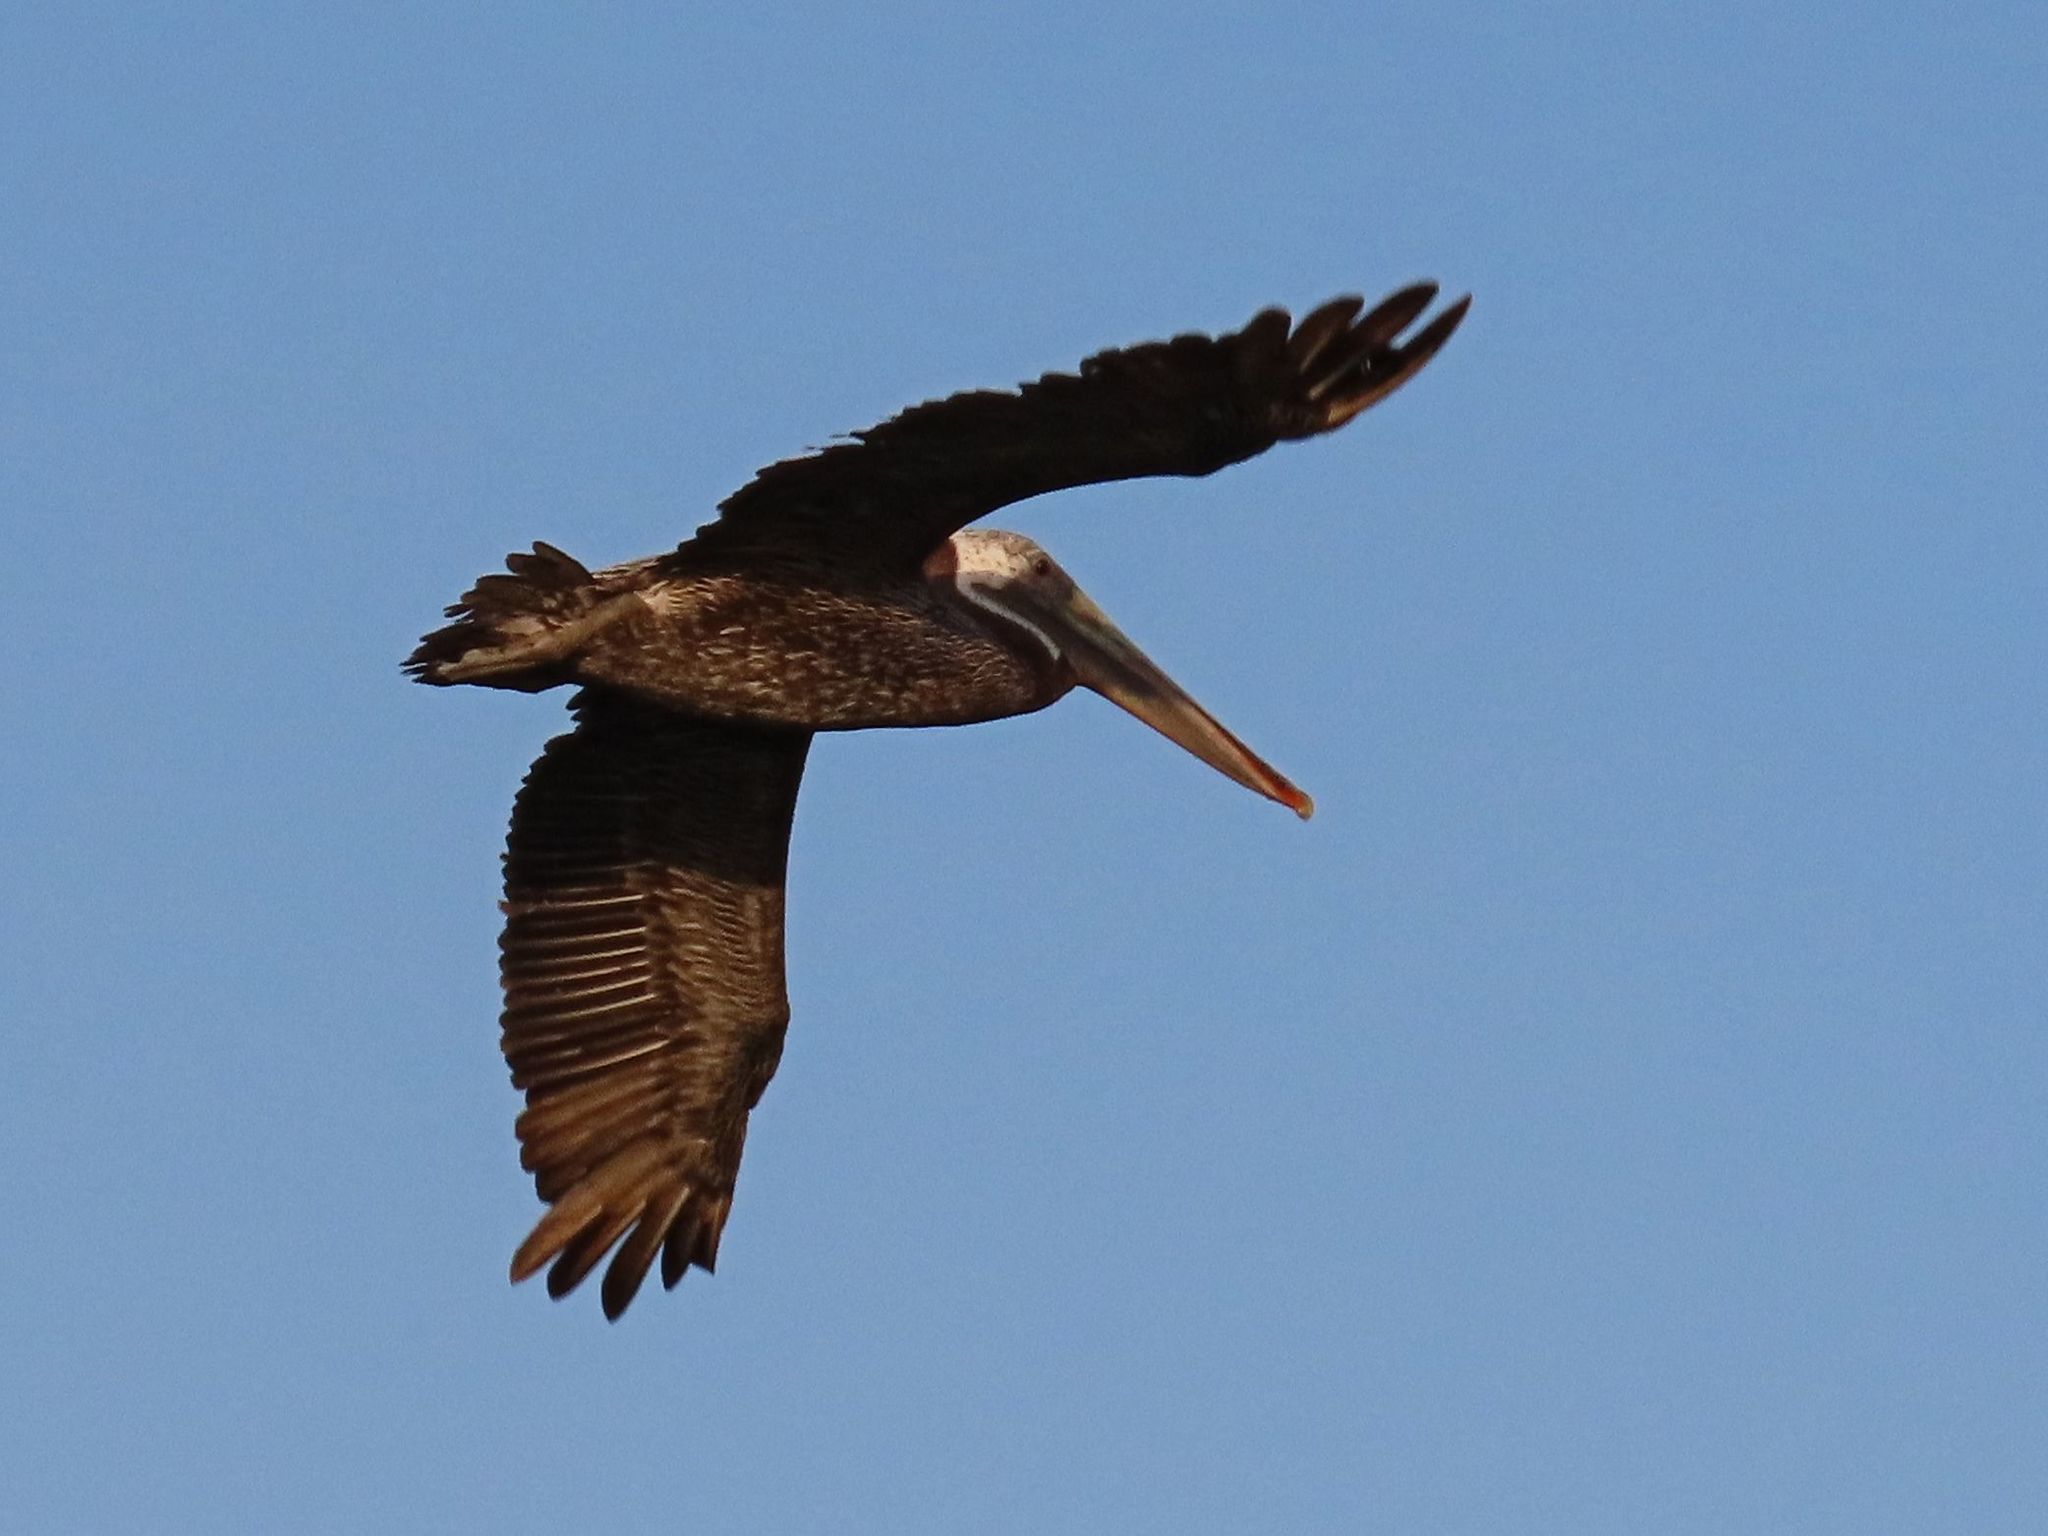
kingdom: Animalia
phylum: Chordata
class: Aves
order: Pelecaniformes
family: Pelecanidae
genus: Pelecanus
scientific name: Pelecanus occidentalis
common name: Brown pelican
